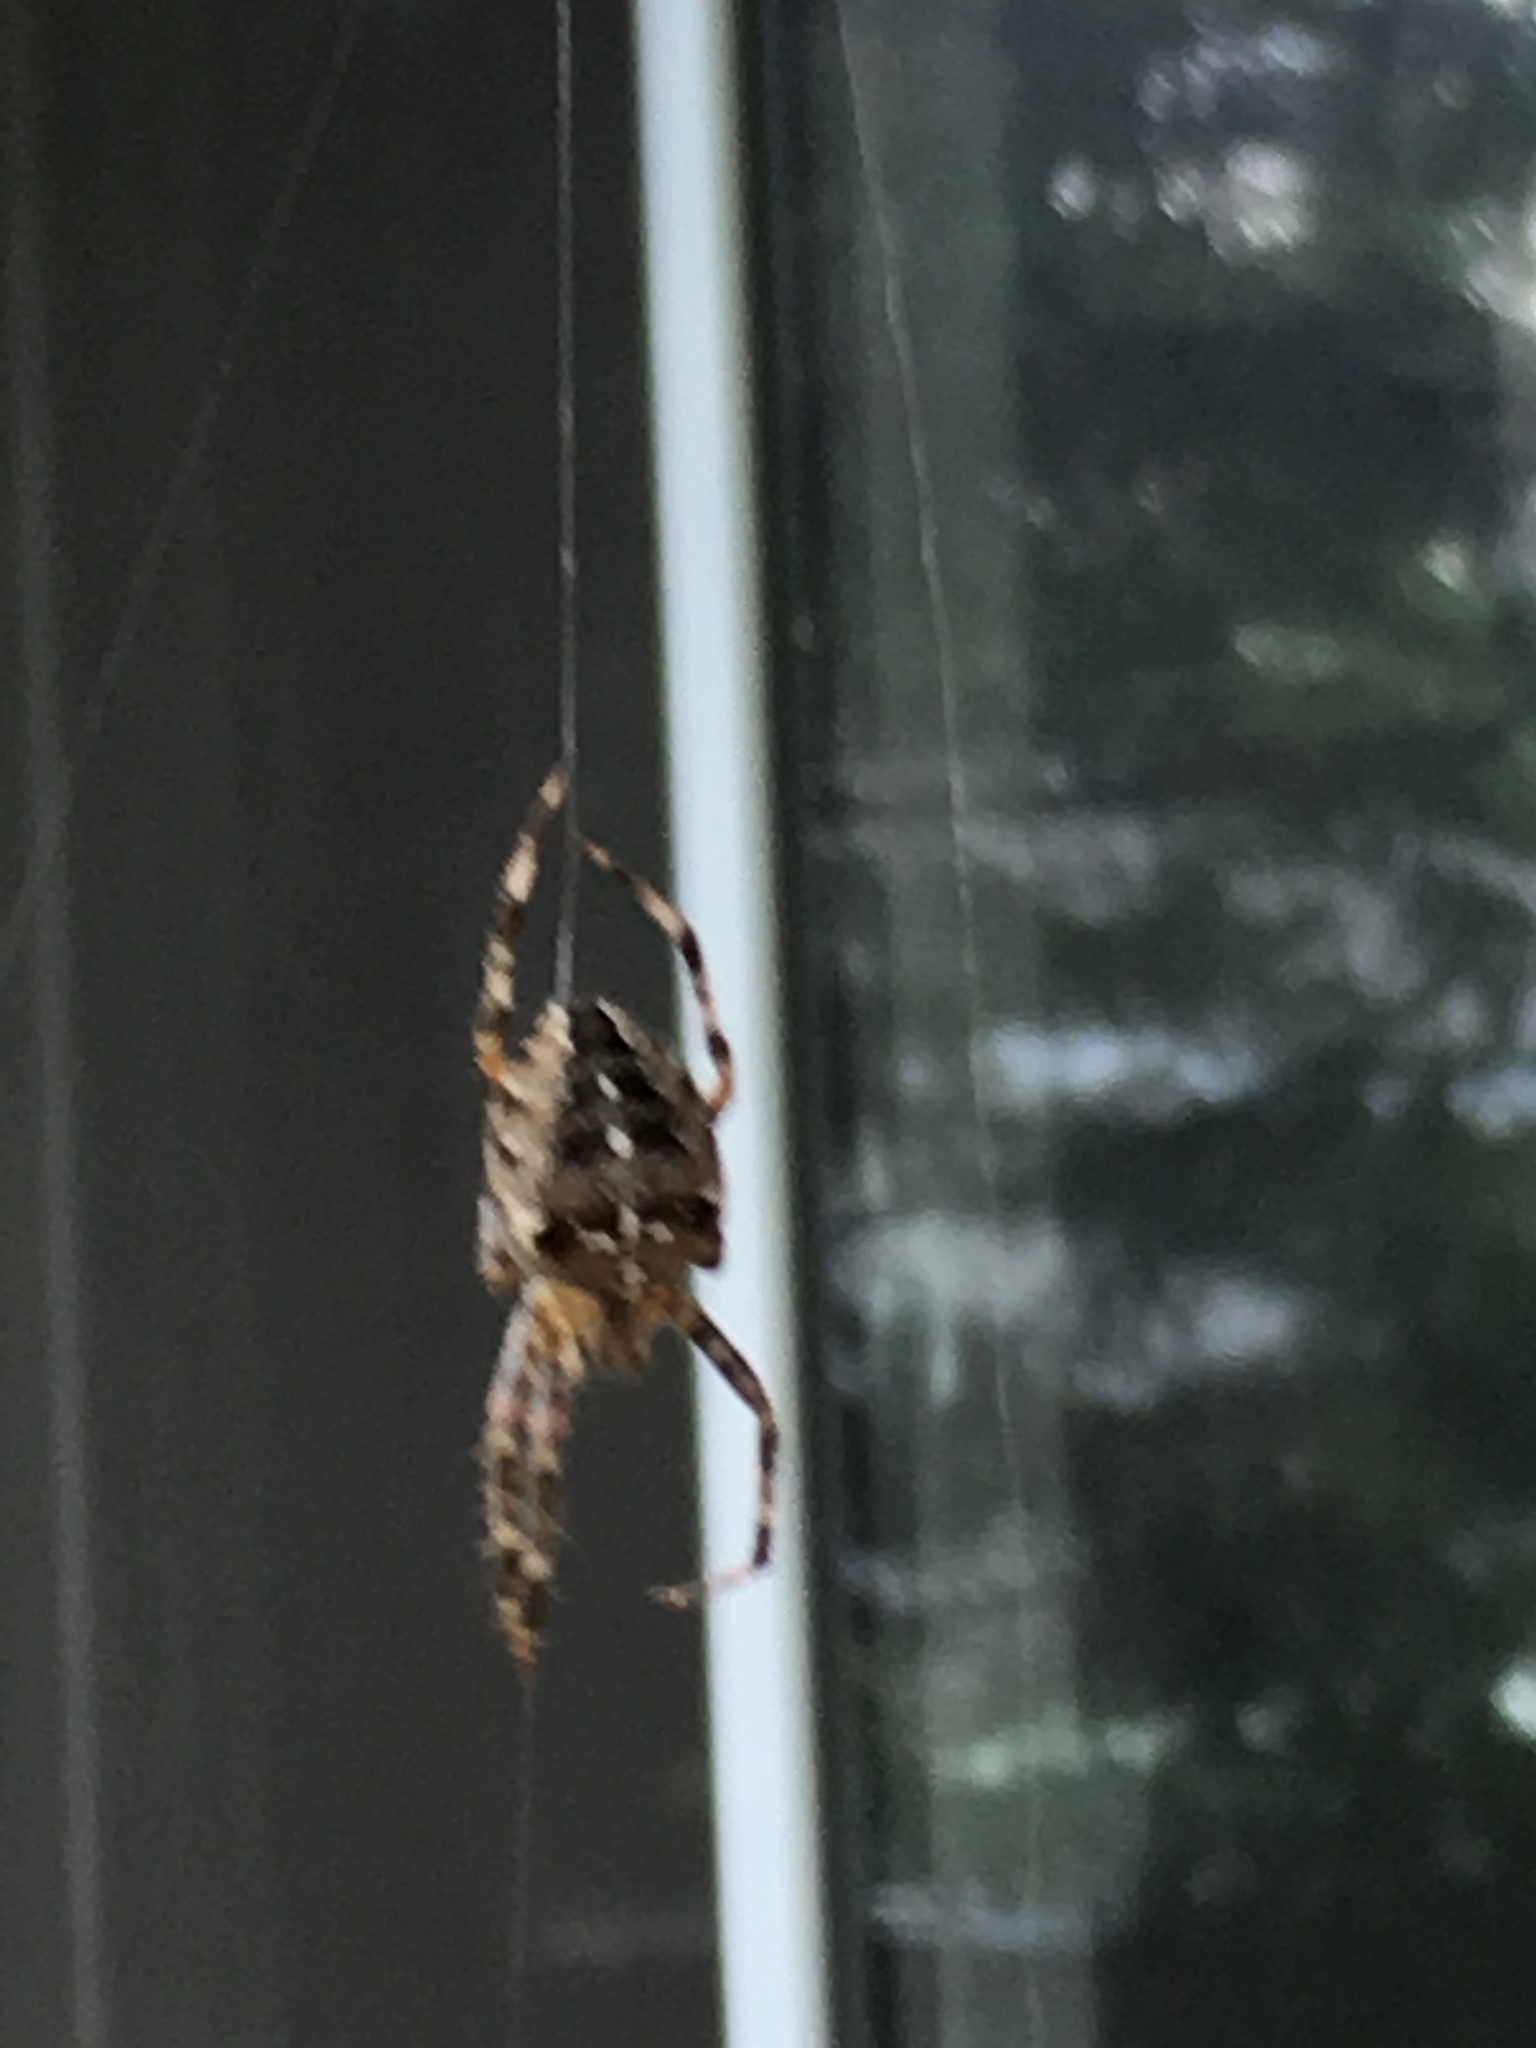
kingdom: Animalia
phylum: Arthropoda
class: Arachnida
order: Araneae
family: Araneidae
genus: Araneus
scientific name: Araneus diadematus
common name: Cross orbweaver
